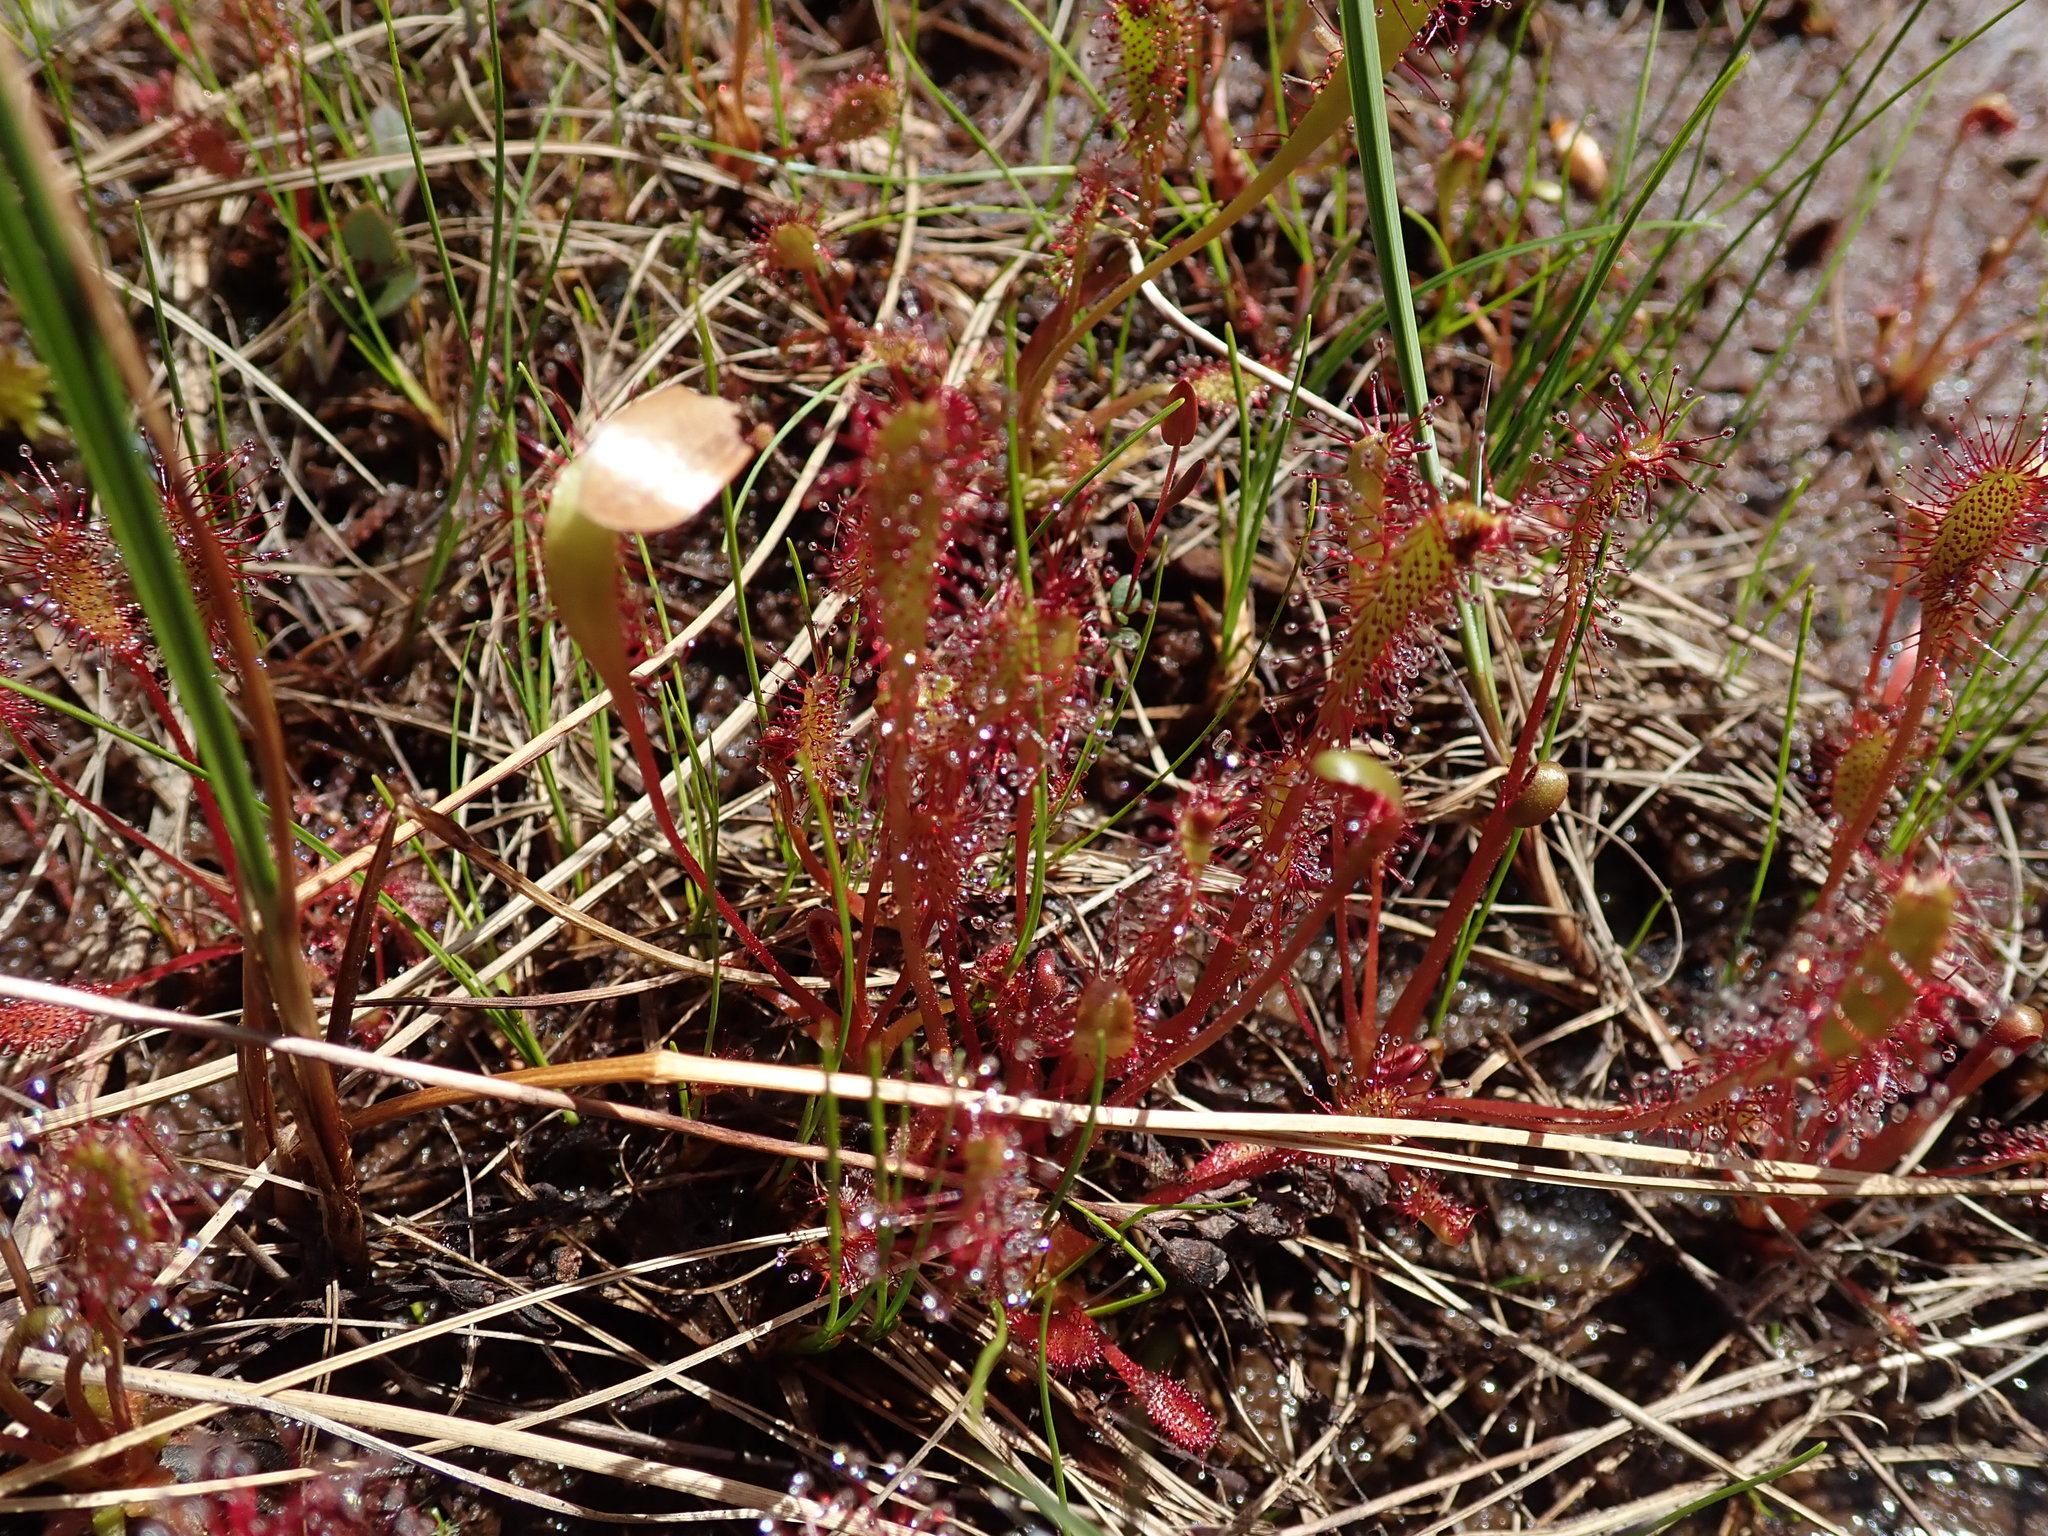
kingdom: Plantae
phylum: Tracheophyta
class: Magnoliopsida
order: Caryophyllales
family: Droseraceae
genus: Drosera
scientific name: Drosera anglica
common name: Great sundew
